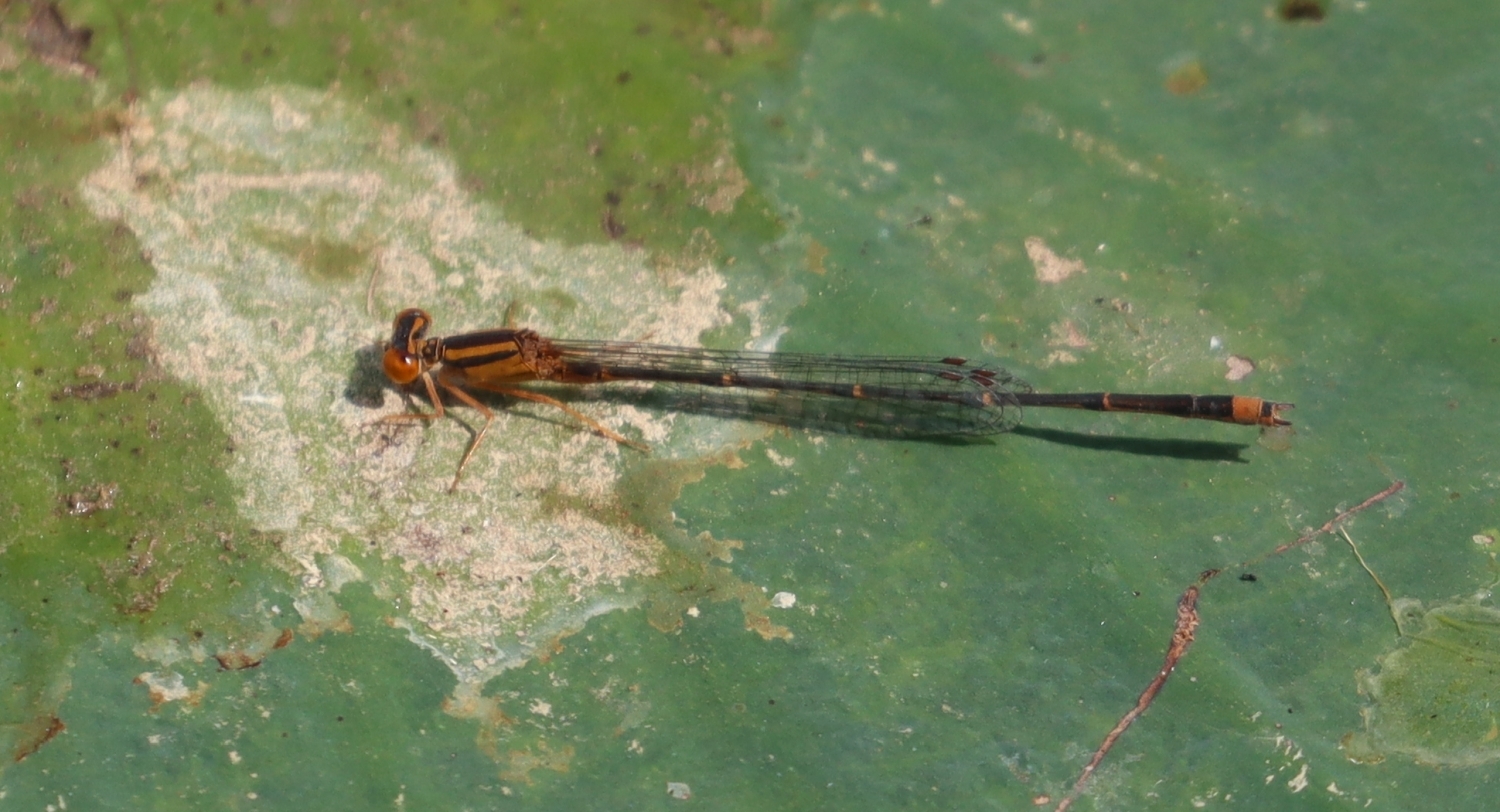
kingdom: Animalia
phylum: Arthropoda
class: Insecta
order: Odonata
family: Coenagrionidae
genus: Enallagma
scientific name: Enallagma signatum
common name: Orange bluet
